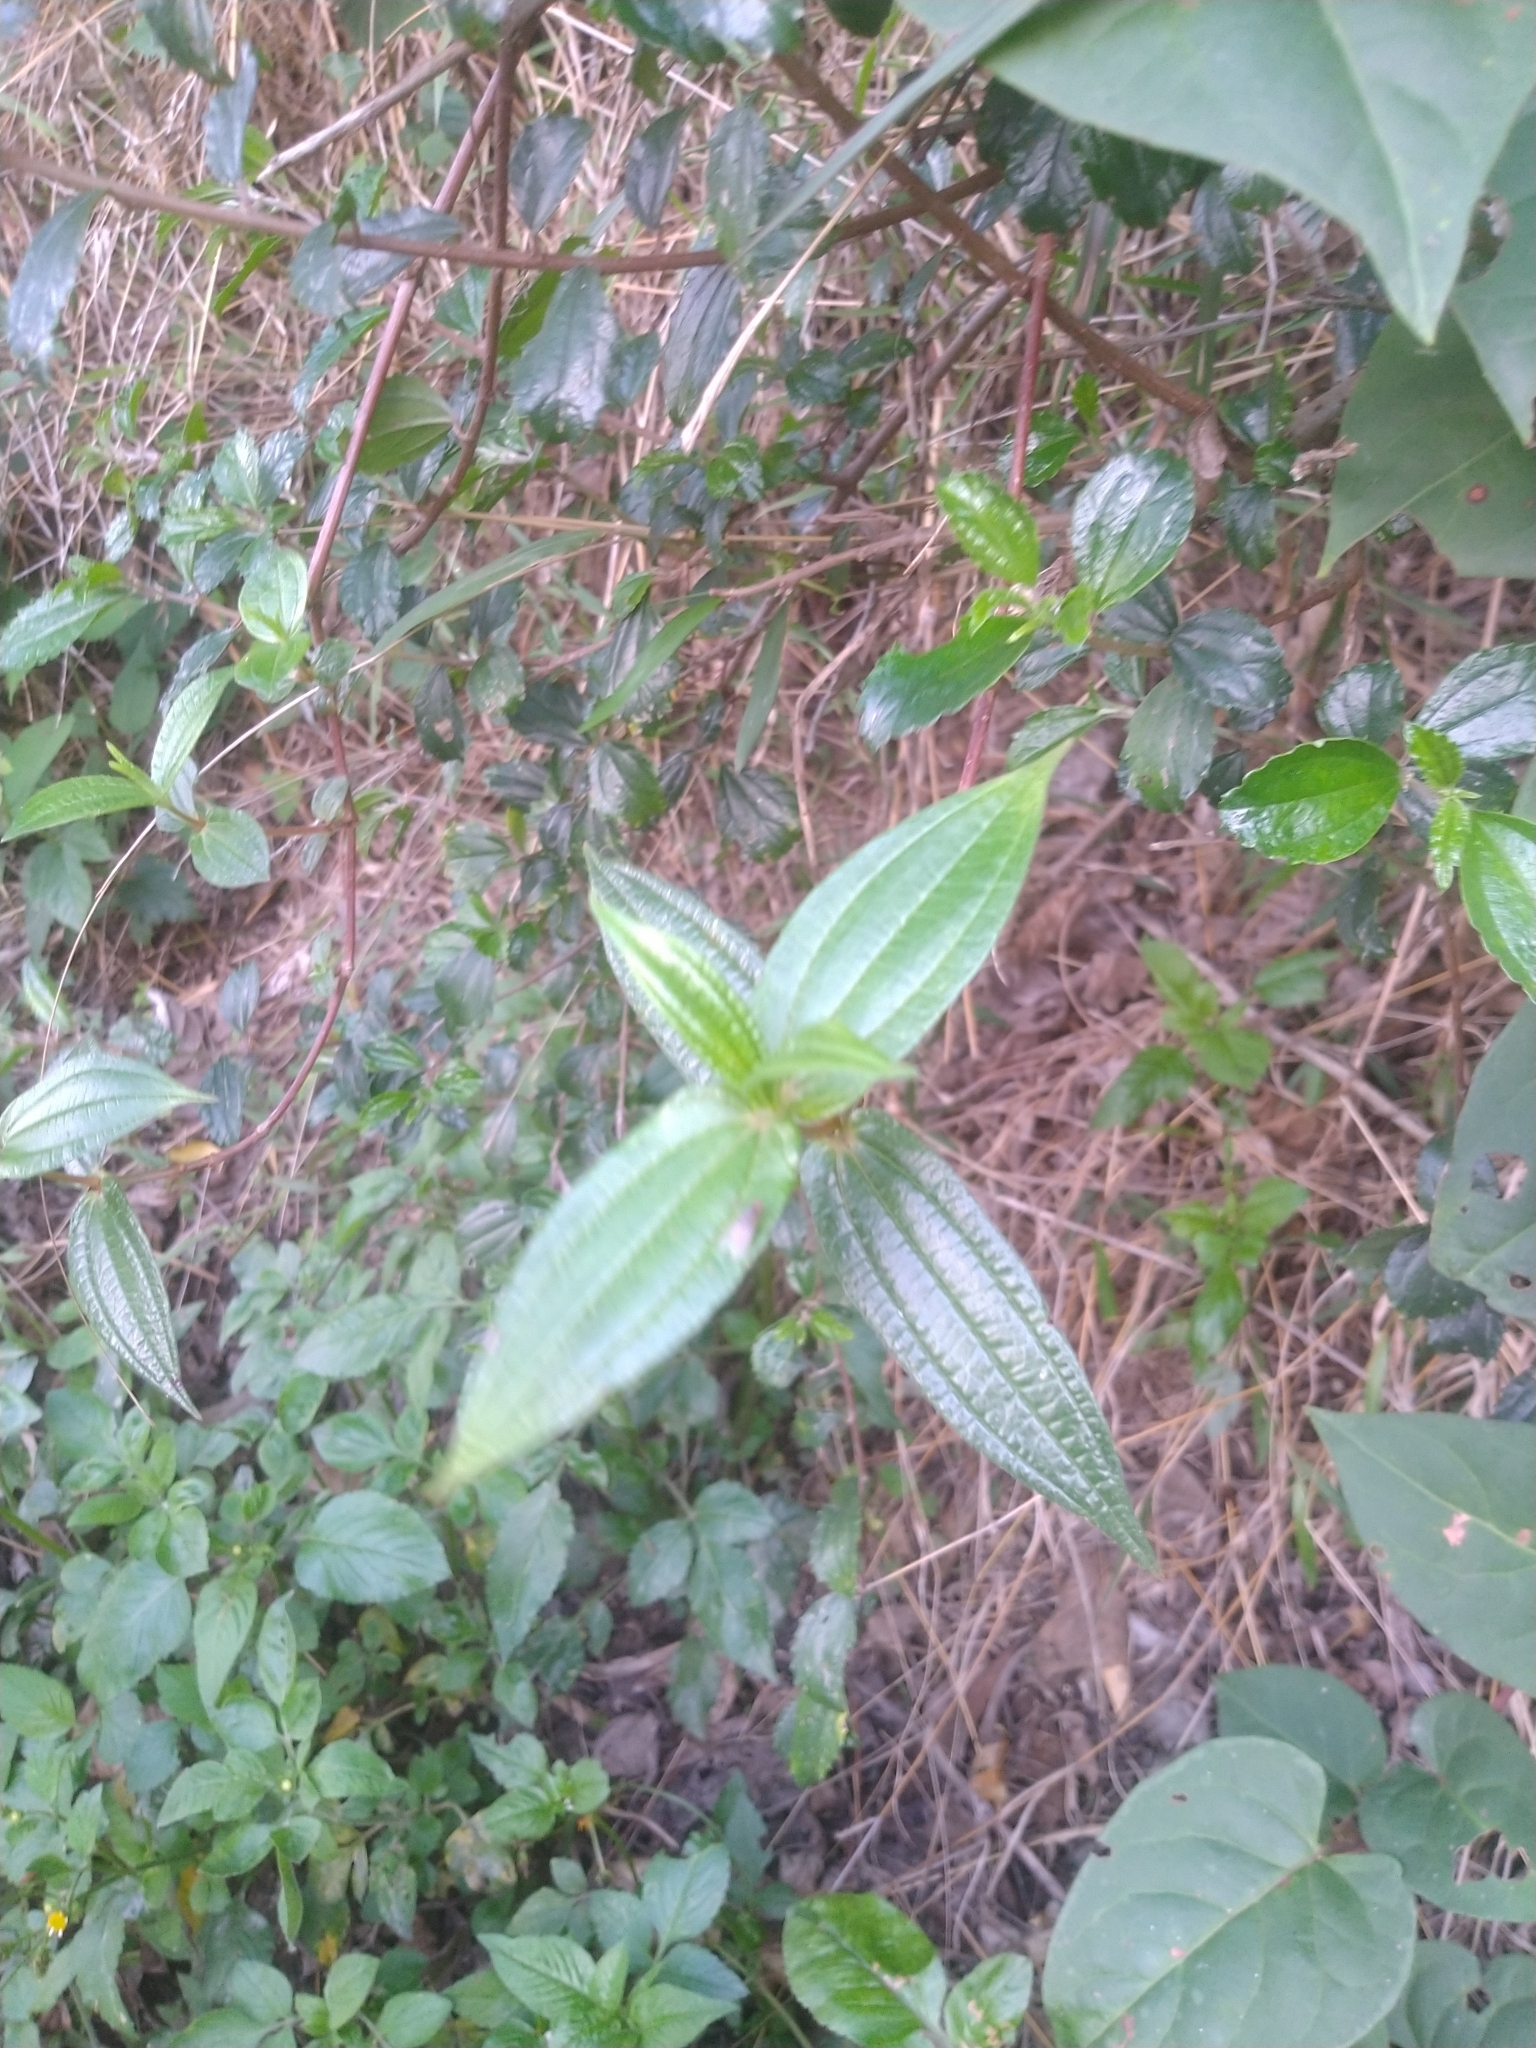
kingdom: Plantae
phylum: Tracheophyta
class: Magnoliopsida
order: Rosales
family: Urticaceae
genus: Gonostegia
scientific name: Gonostegia triandra
